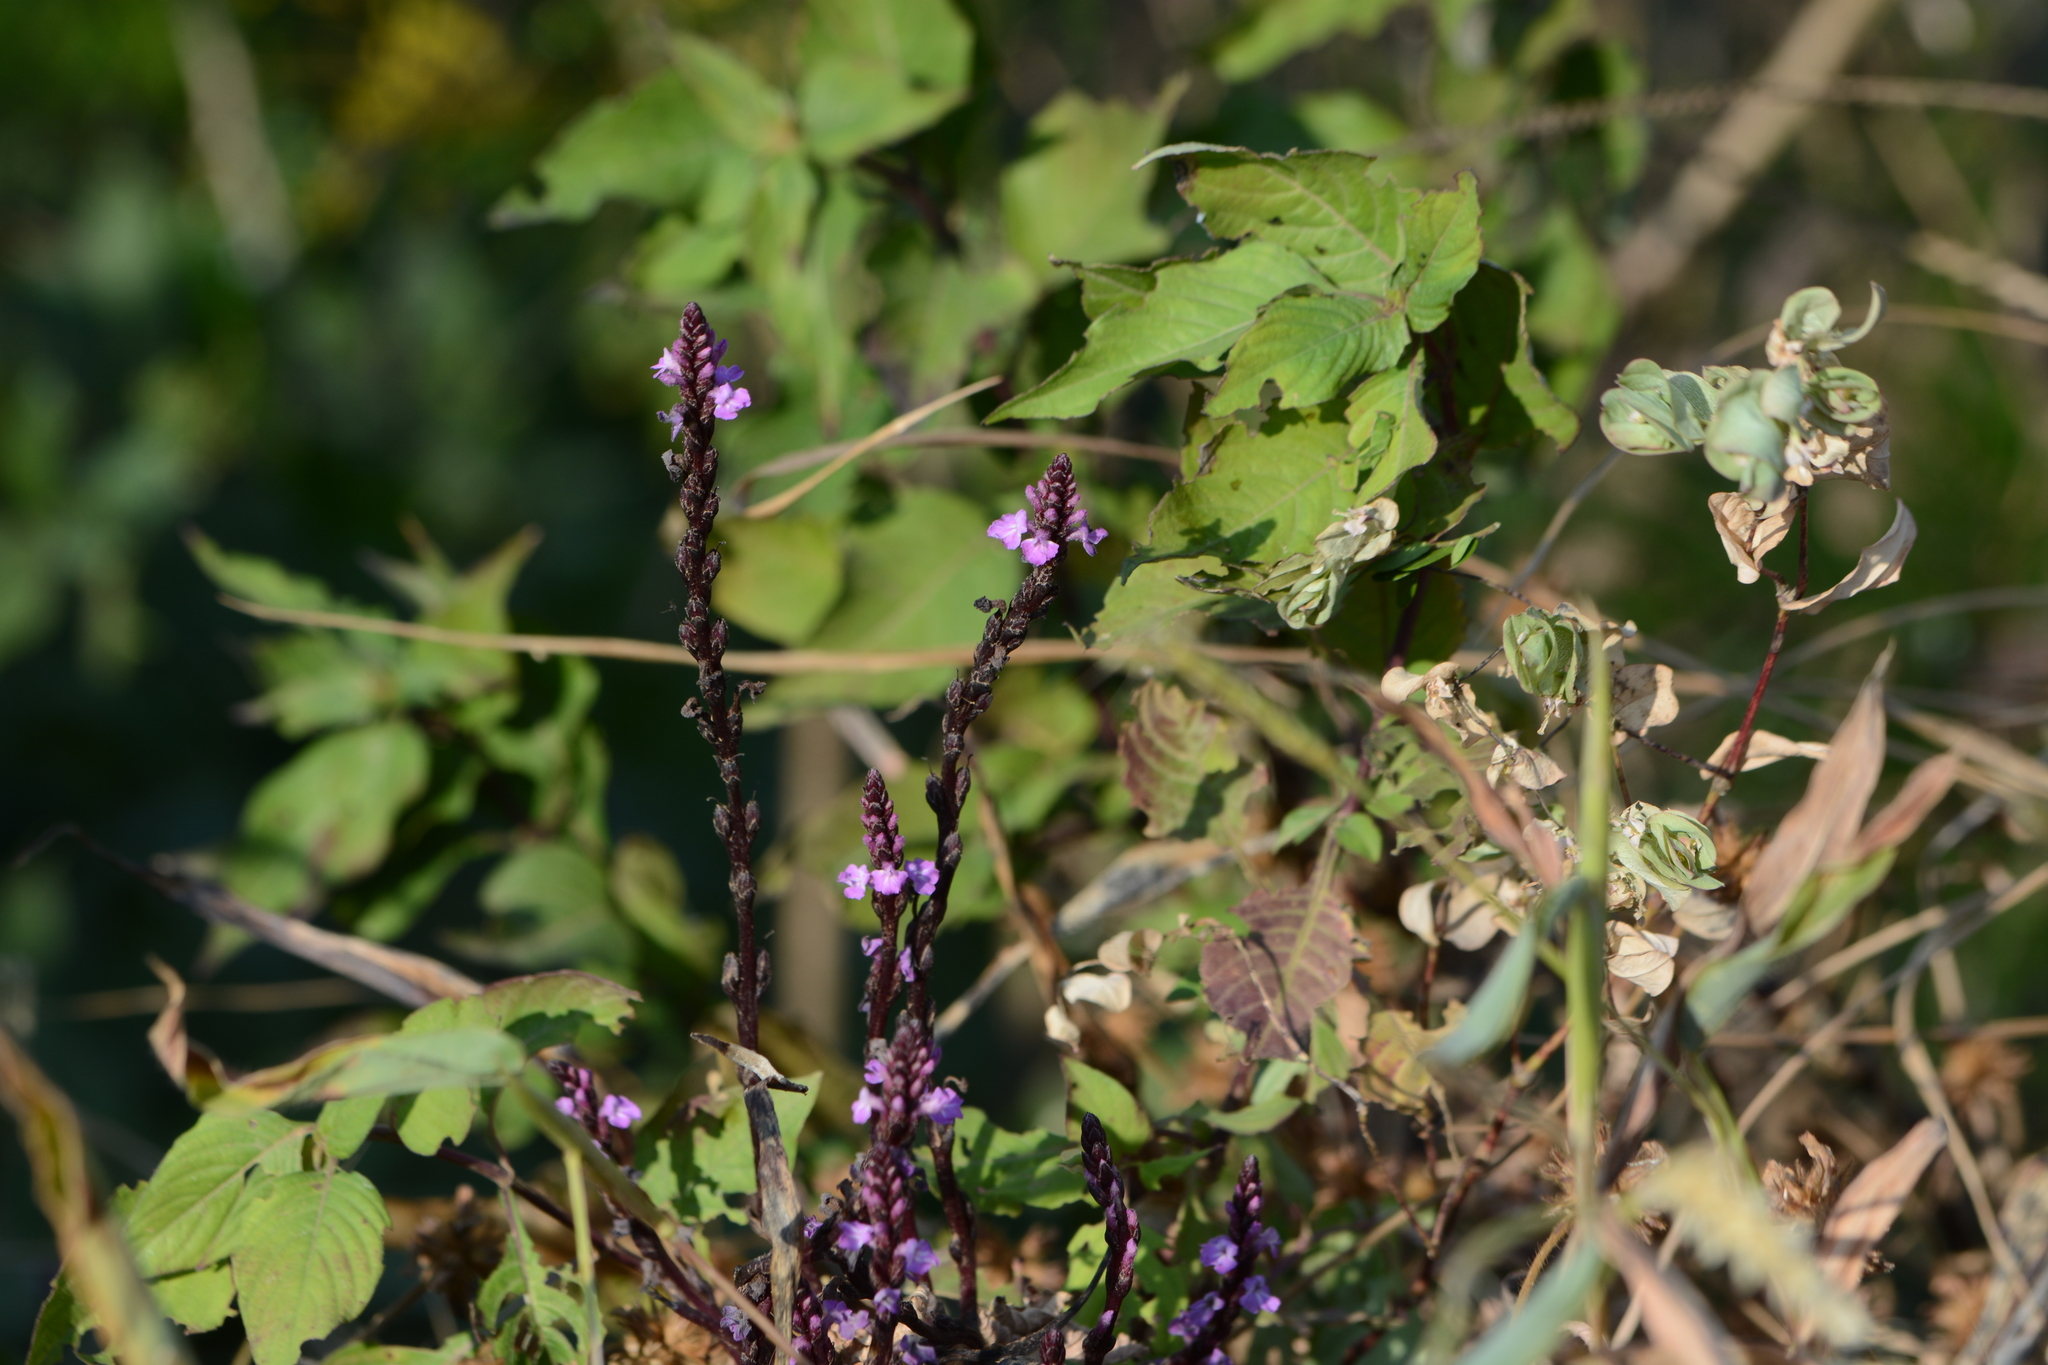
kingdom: Plantae
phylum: Tracheophyta
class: Magnoliopsida
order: Lamiales
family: Orobanchaceae
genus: Striga
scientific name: Striga gesnerioides
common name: Cowpea witchweed
